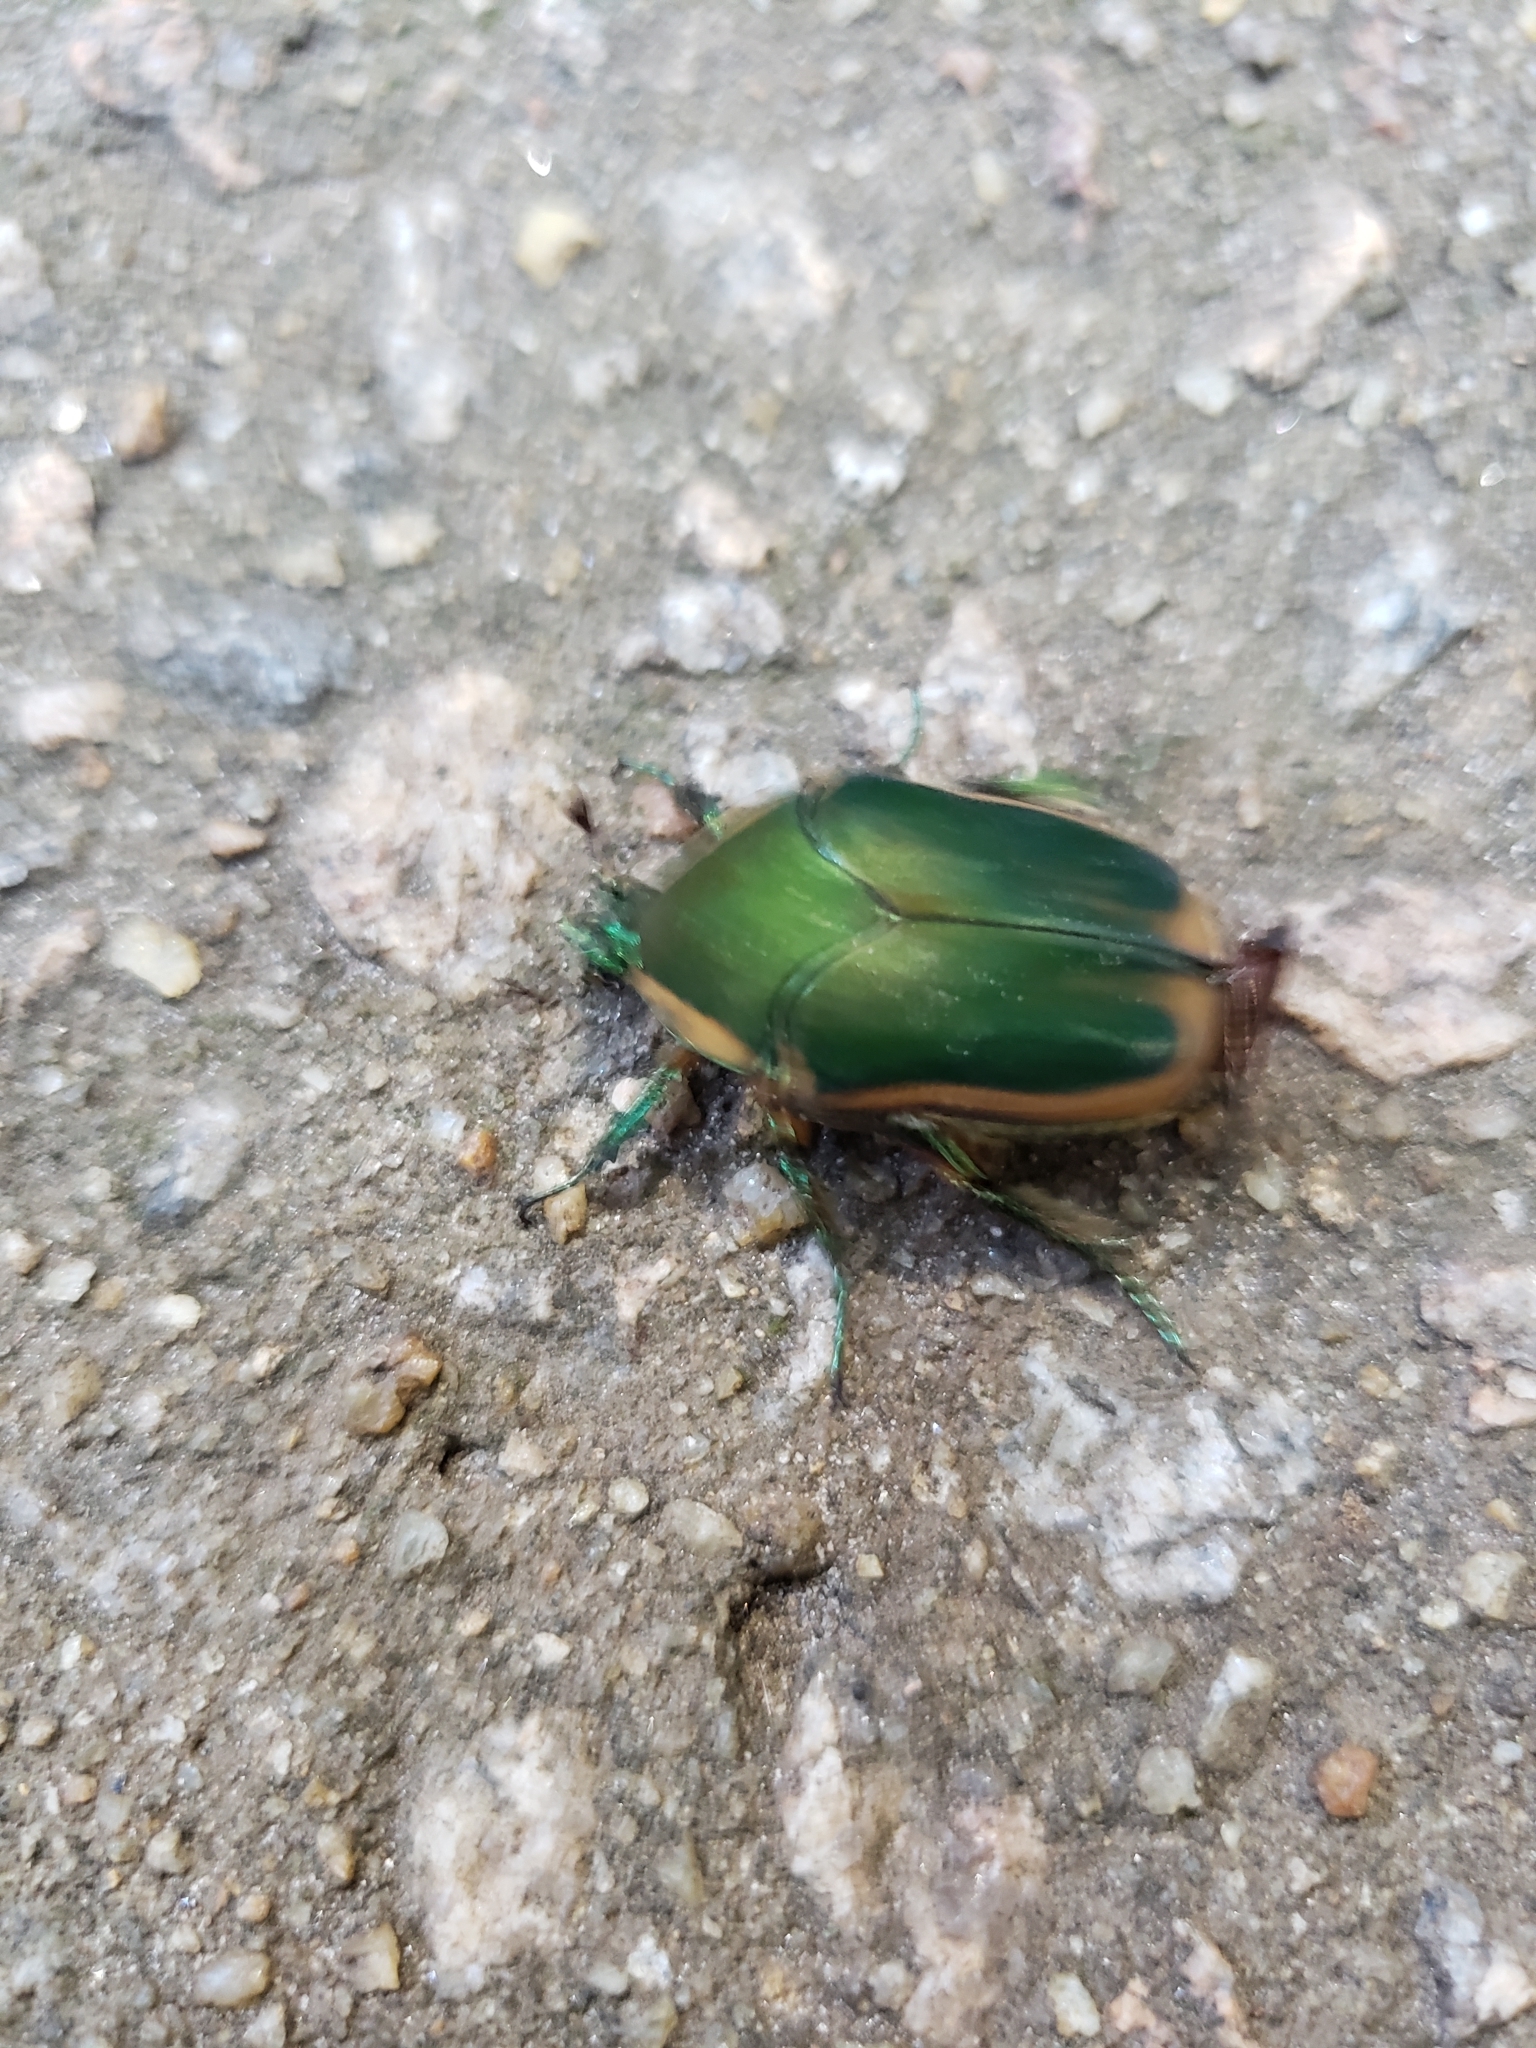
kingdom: Animalia
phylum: Arthropoda
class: Insecta
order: Coleoptera
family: Scarabaeidae
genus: Cotinis
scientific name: Cotinis nitida
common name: Common green june beetle
